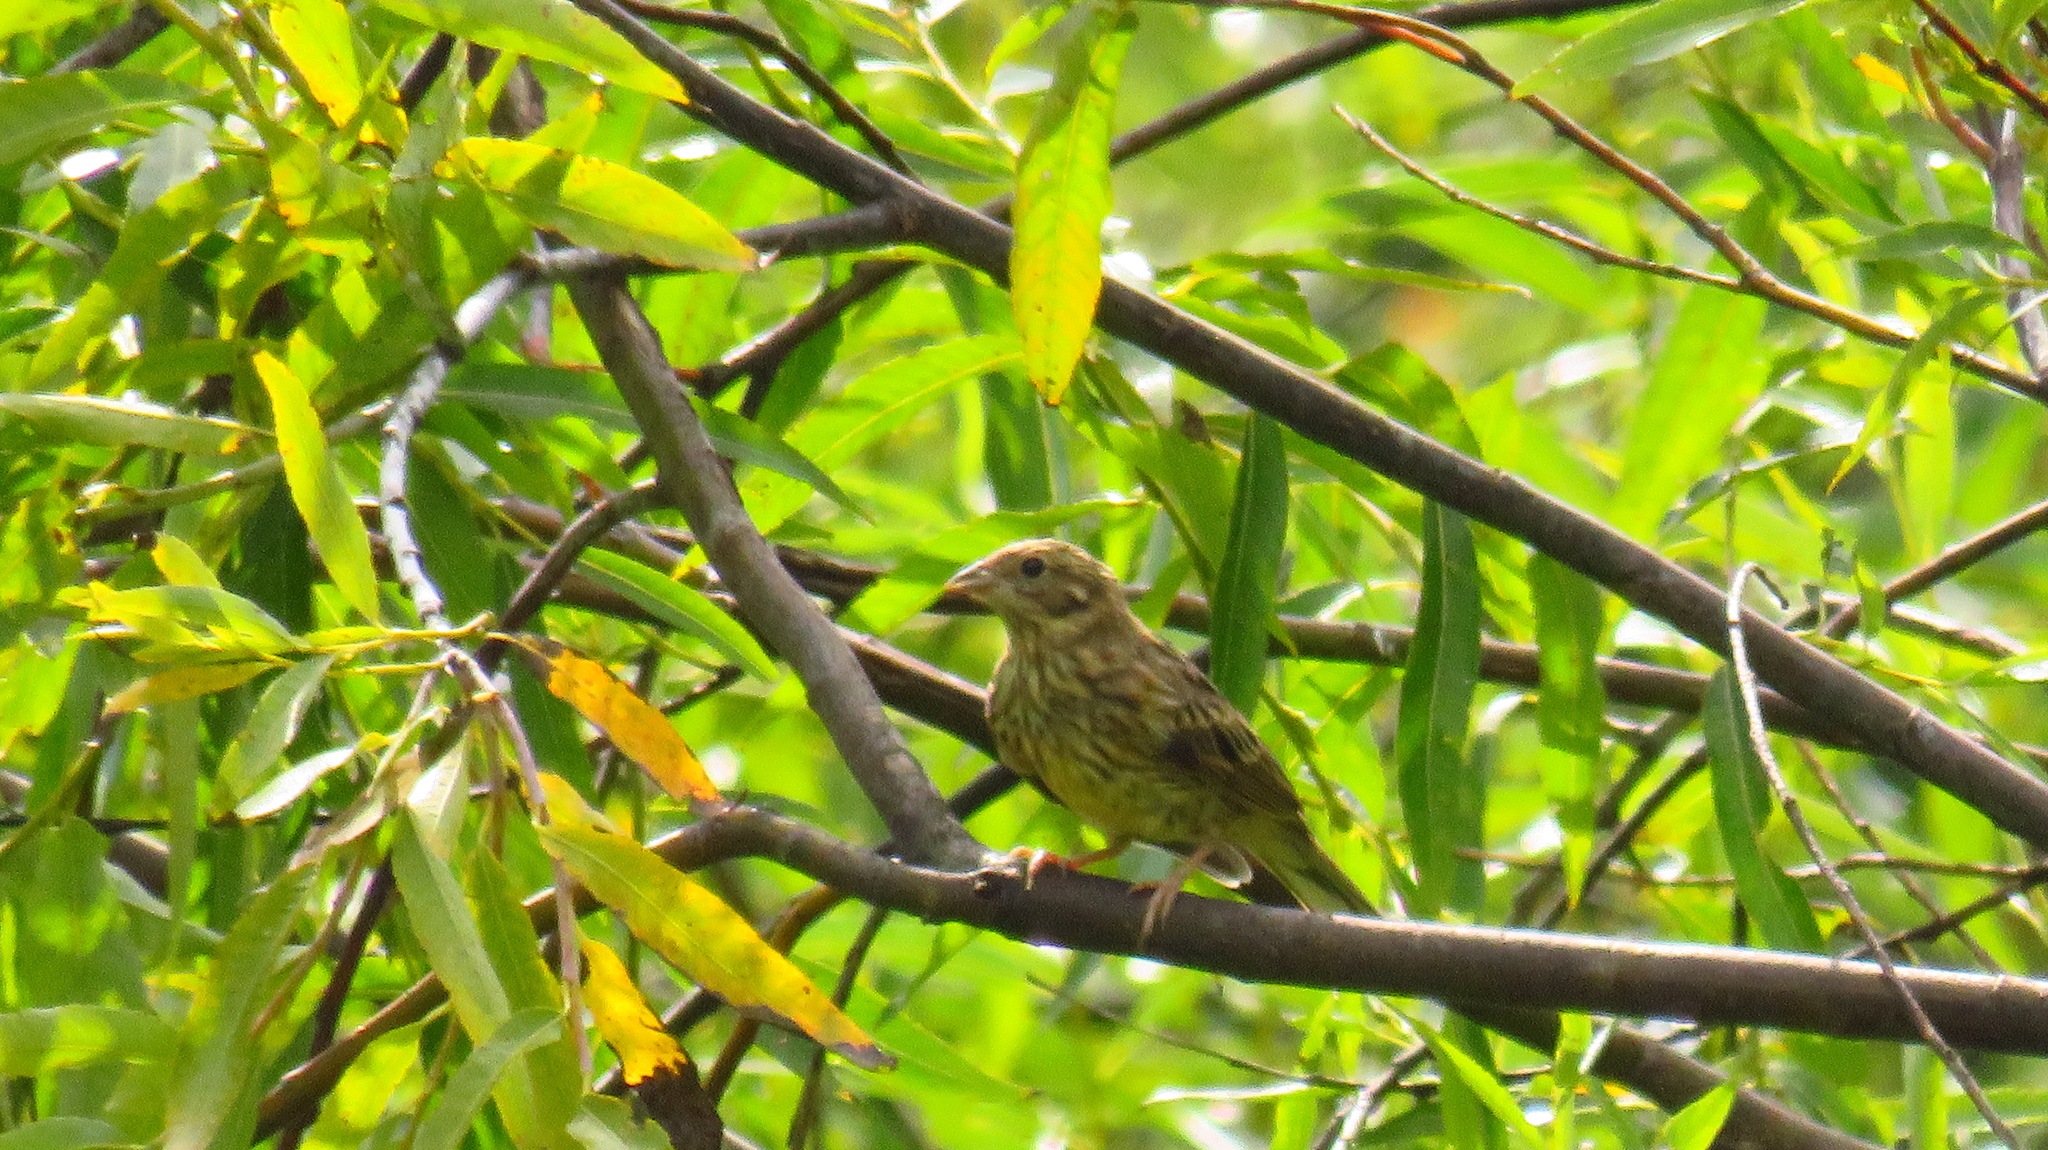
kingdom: Animalia
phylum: Chordata
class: Aves
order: Passeriformes
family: Emberizidae
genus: Emberiza
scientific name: Emberiza citrinella
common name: Yellowhammer
